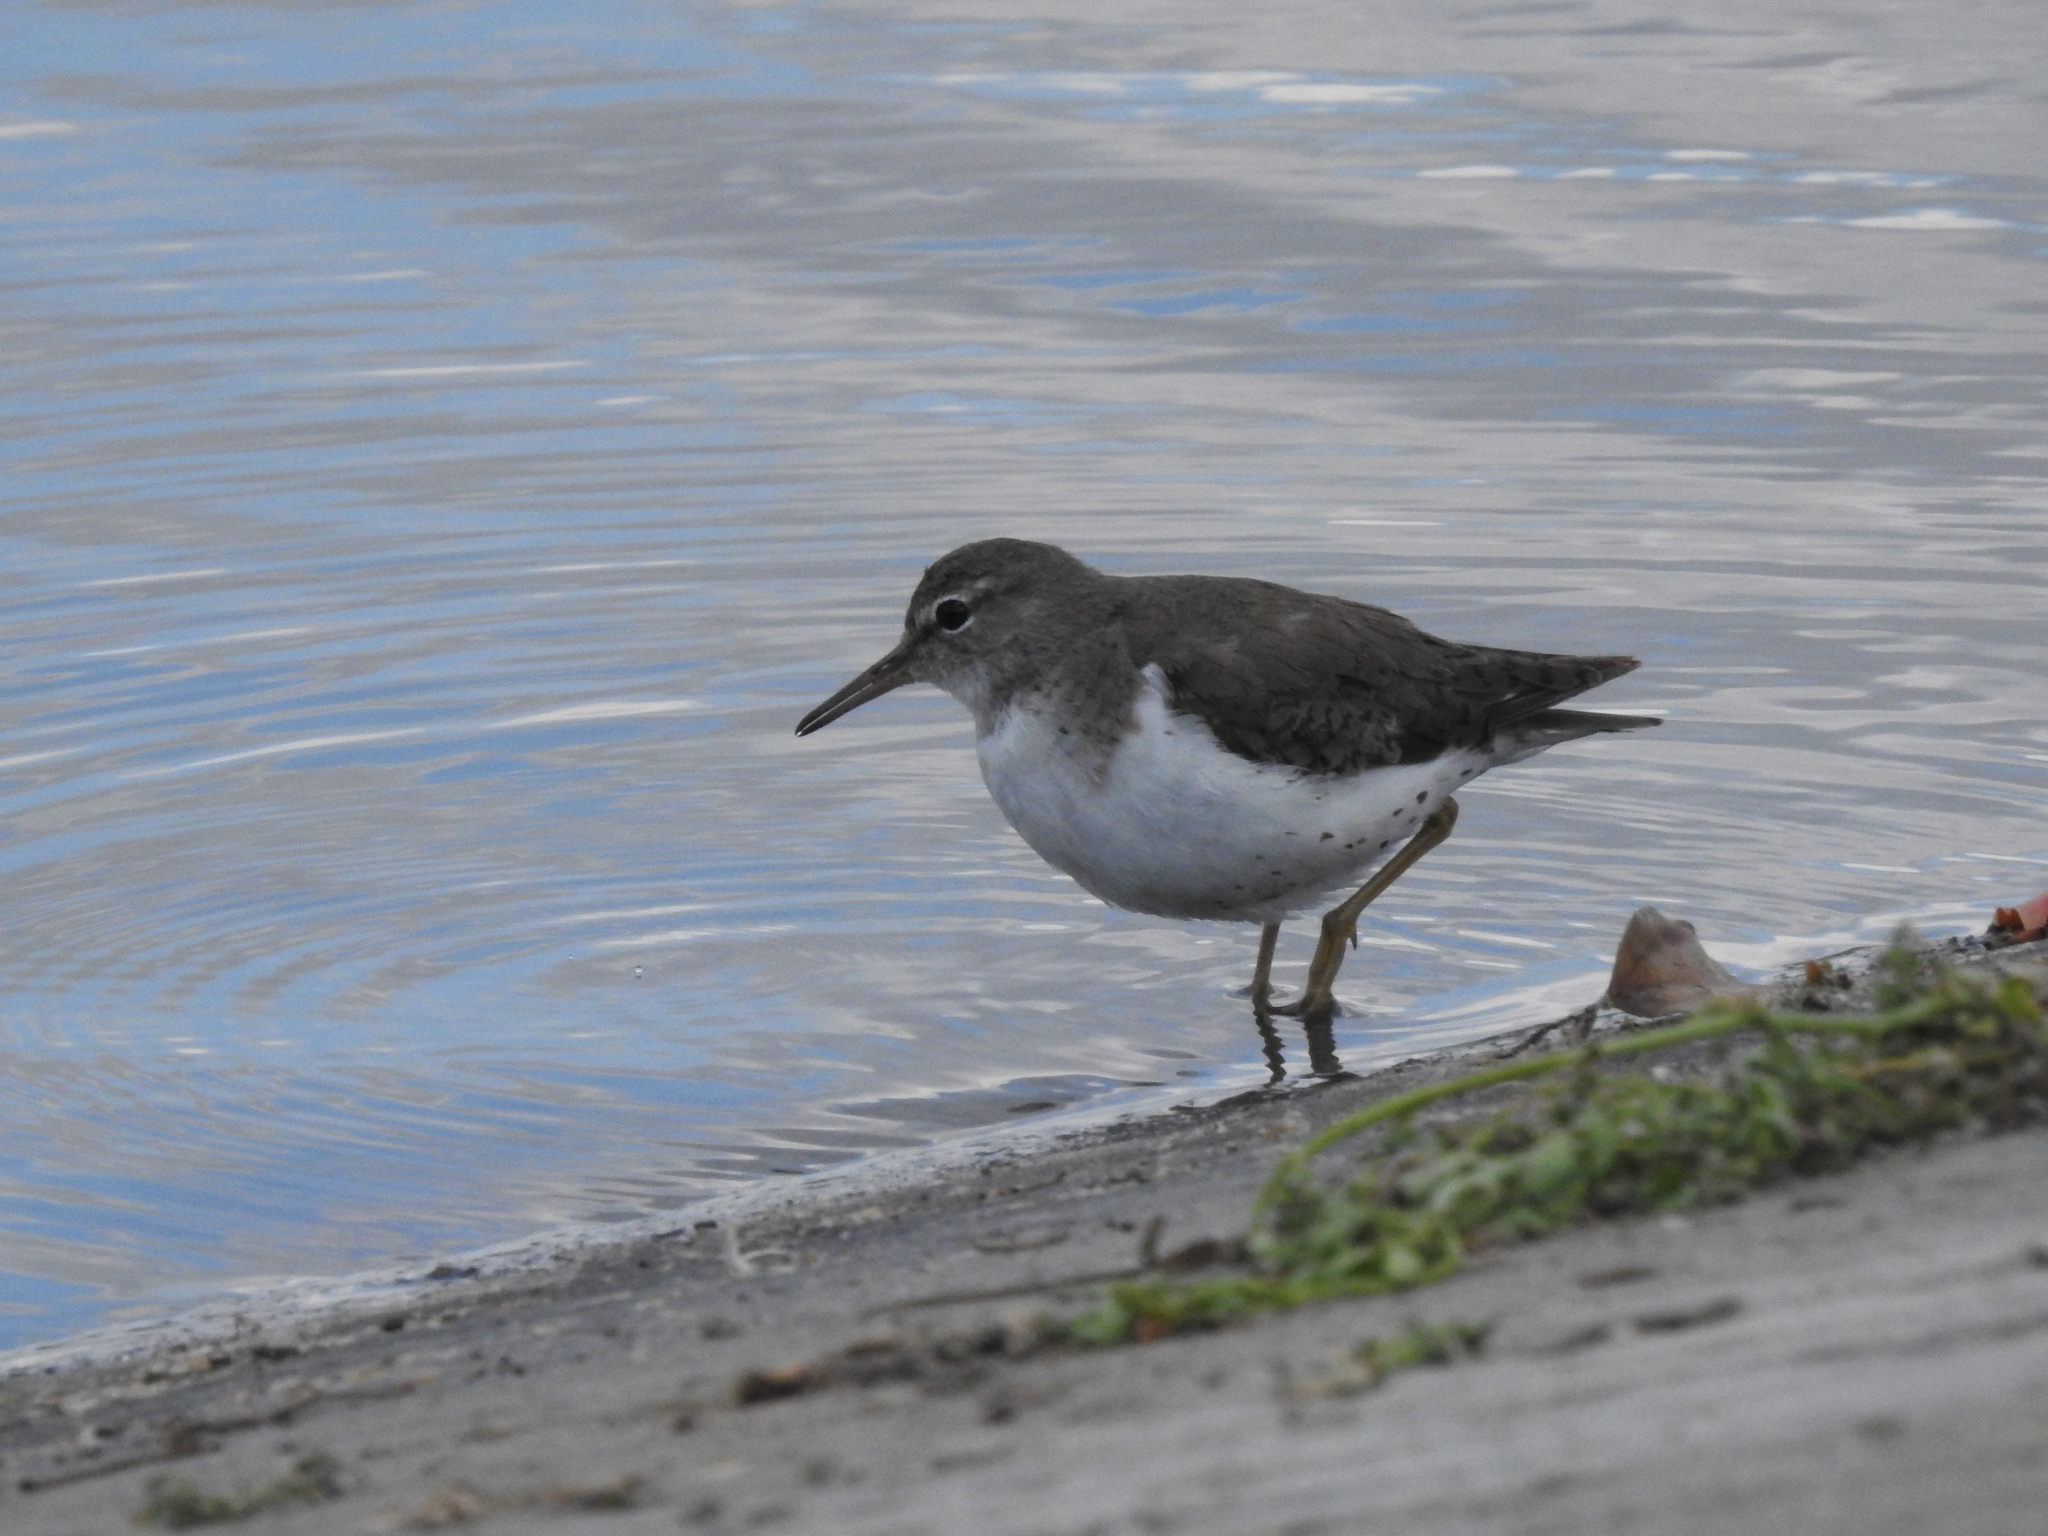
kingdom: Animalia
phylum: Chordata
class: Aves
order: Charadriiformes
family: Scolopacidae
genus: Actitis
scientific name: Actitis macularius
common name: Spotted sandpiper
